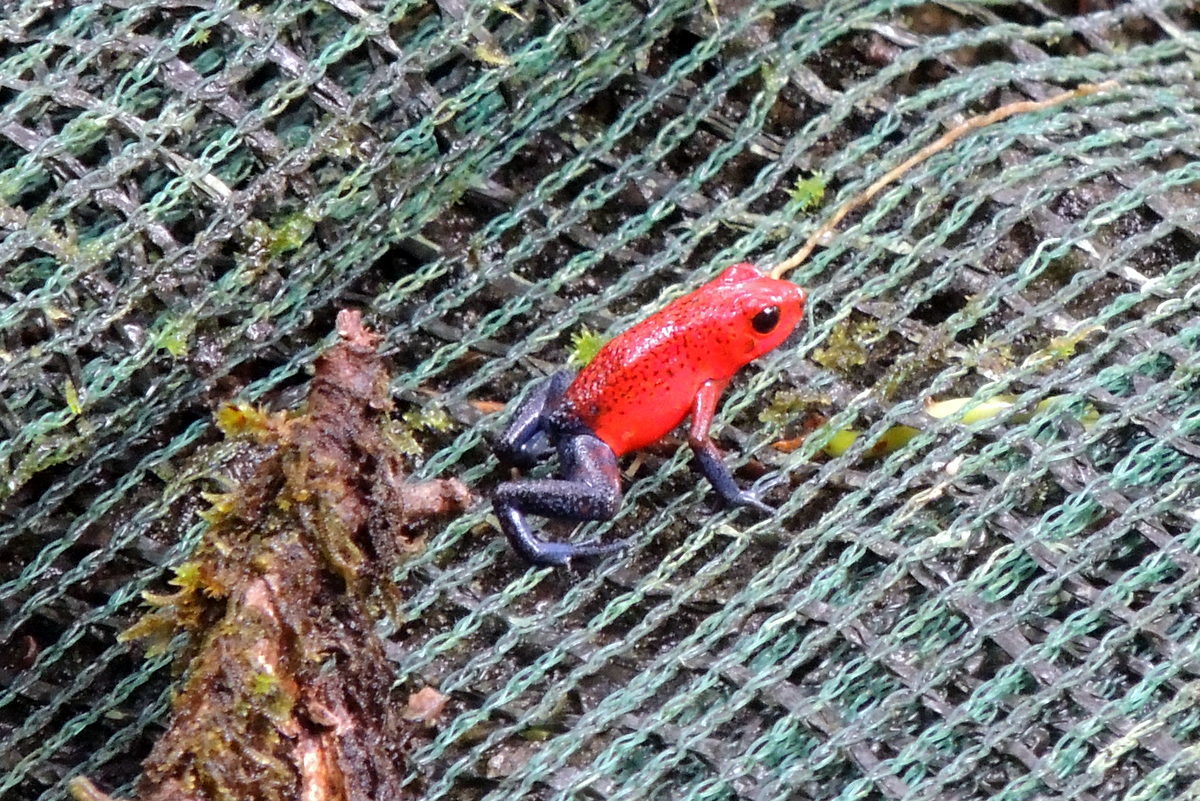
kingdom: Animalia
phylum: Chordata
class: Amphibia
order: Anura
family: Dendrobatidae
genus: Oophaga
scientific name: Oophaga pumilio
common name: Flaming poison frog
